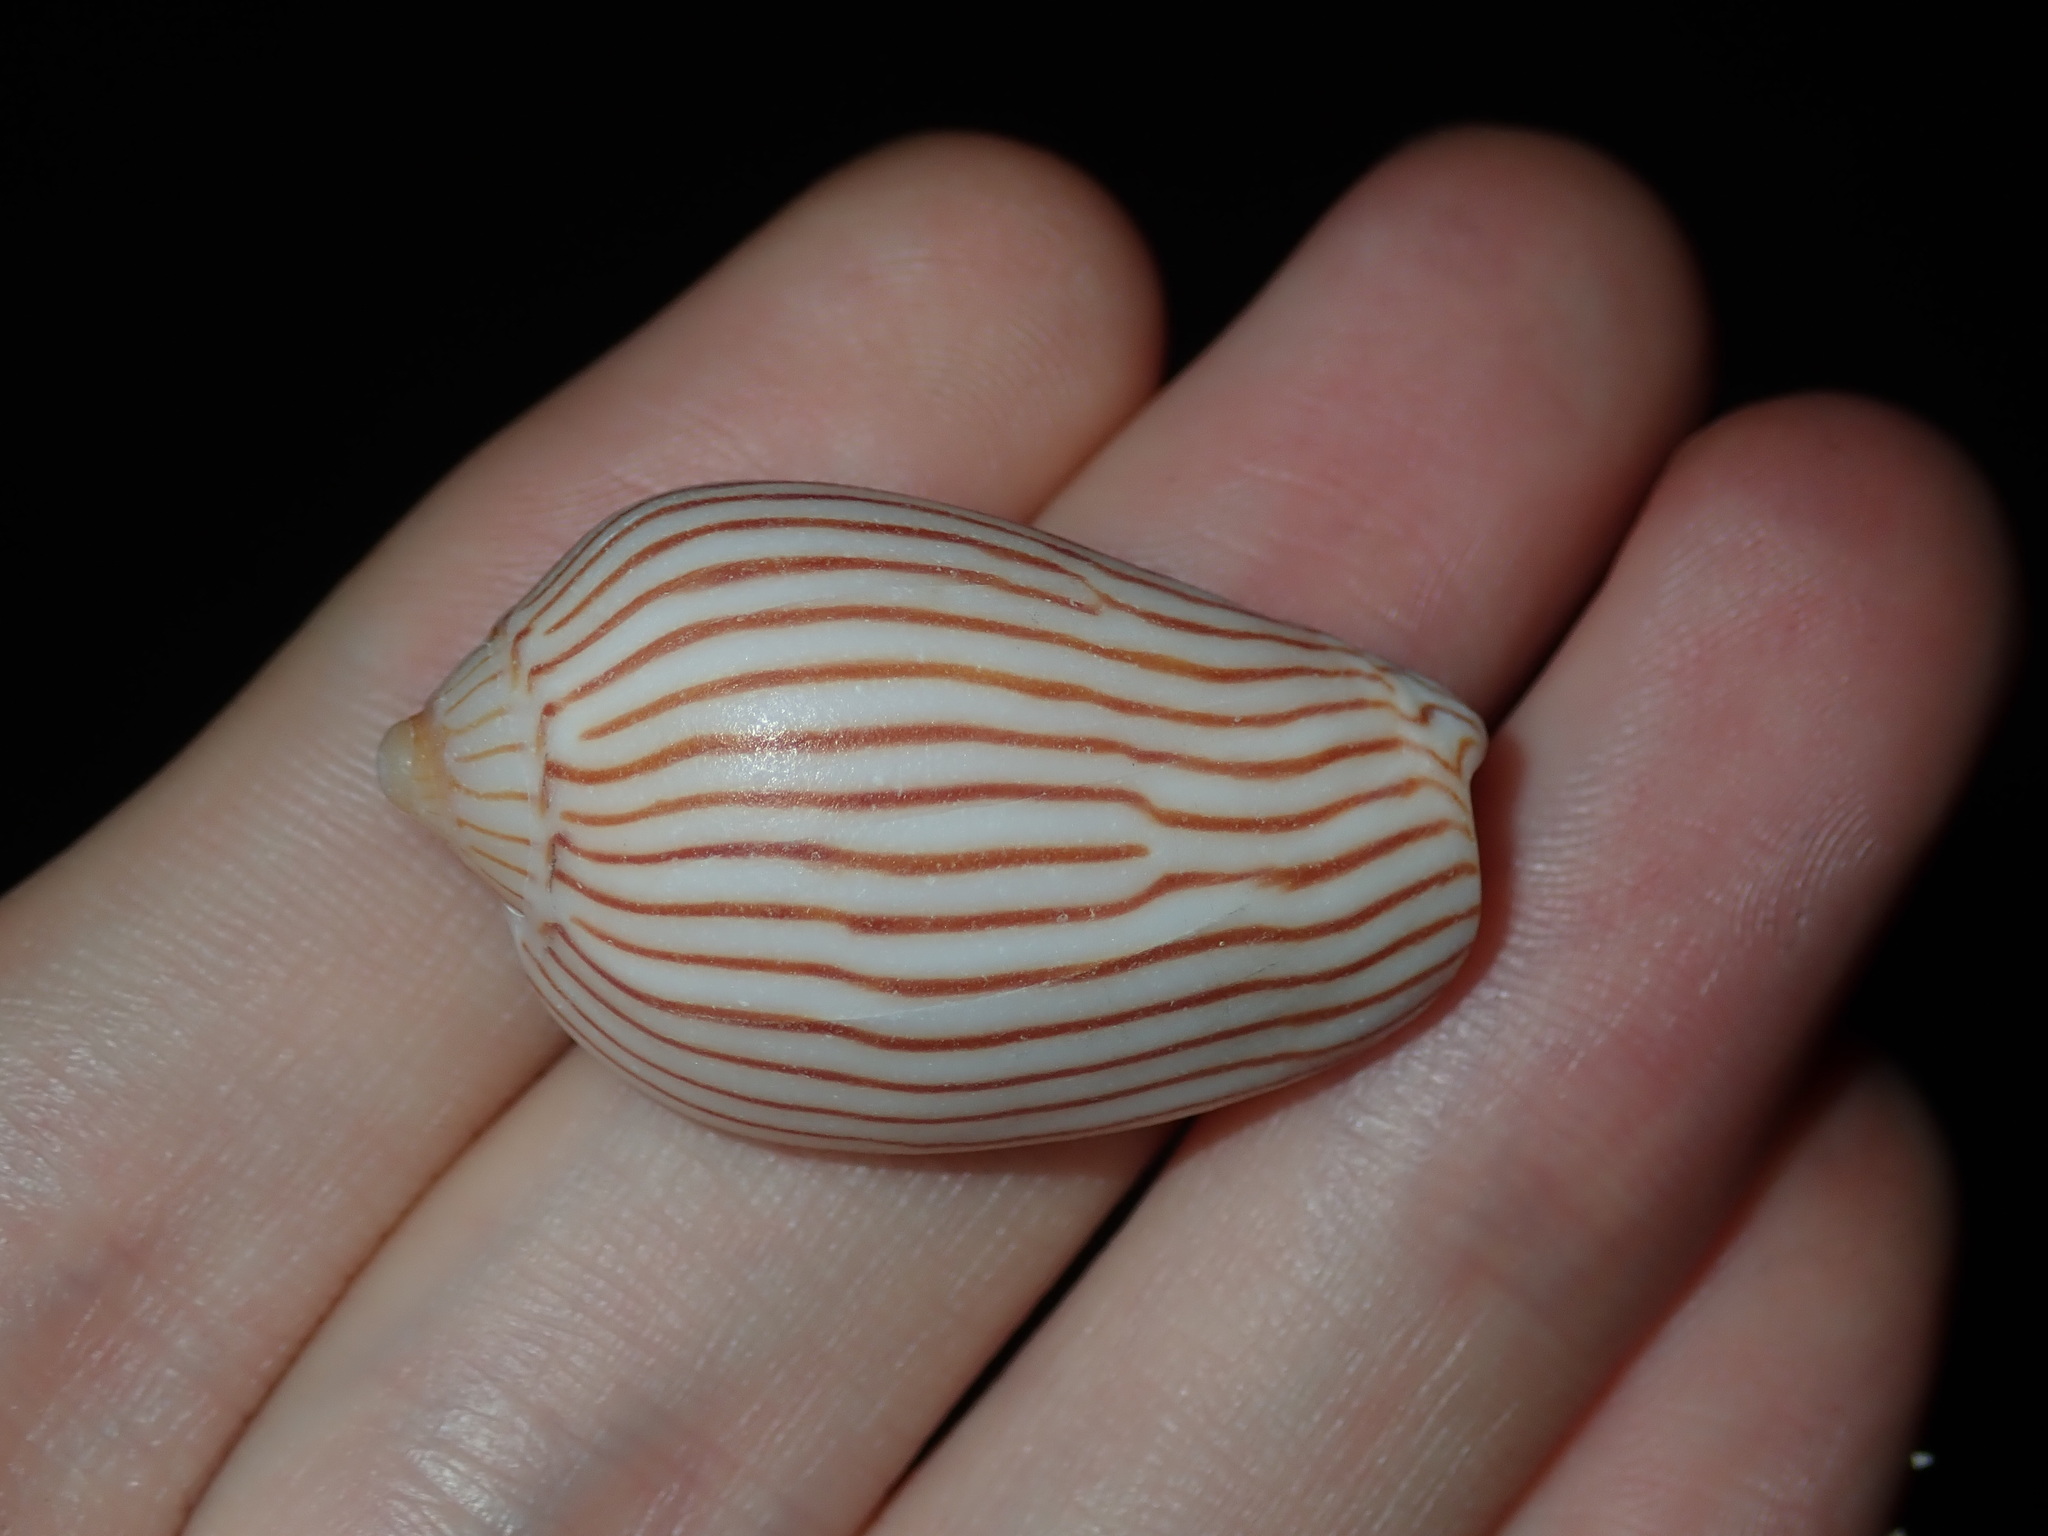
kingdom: Animalia
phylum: Mollusca
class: Gastropoda
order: Neogastropoda
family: Volutidae
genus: Amoria
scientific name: Amoria zebra
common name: Zebra volute
